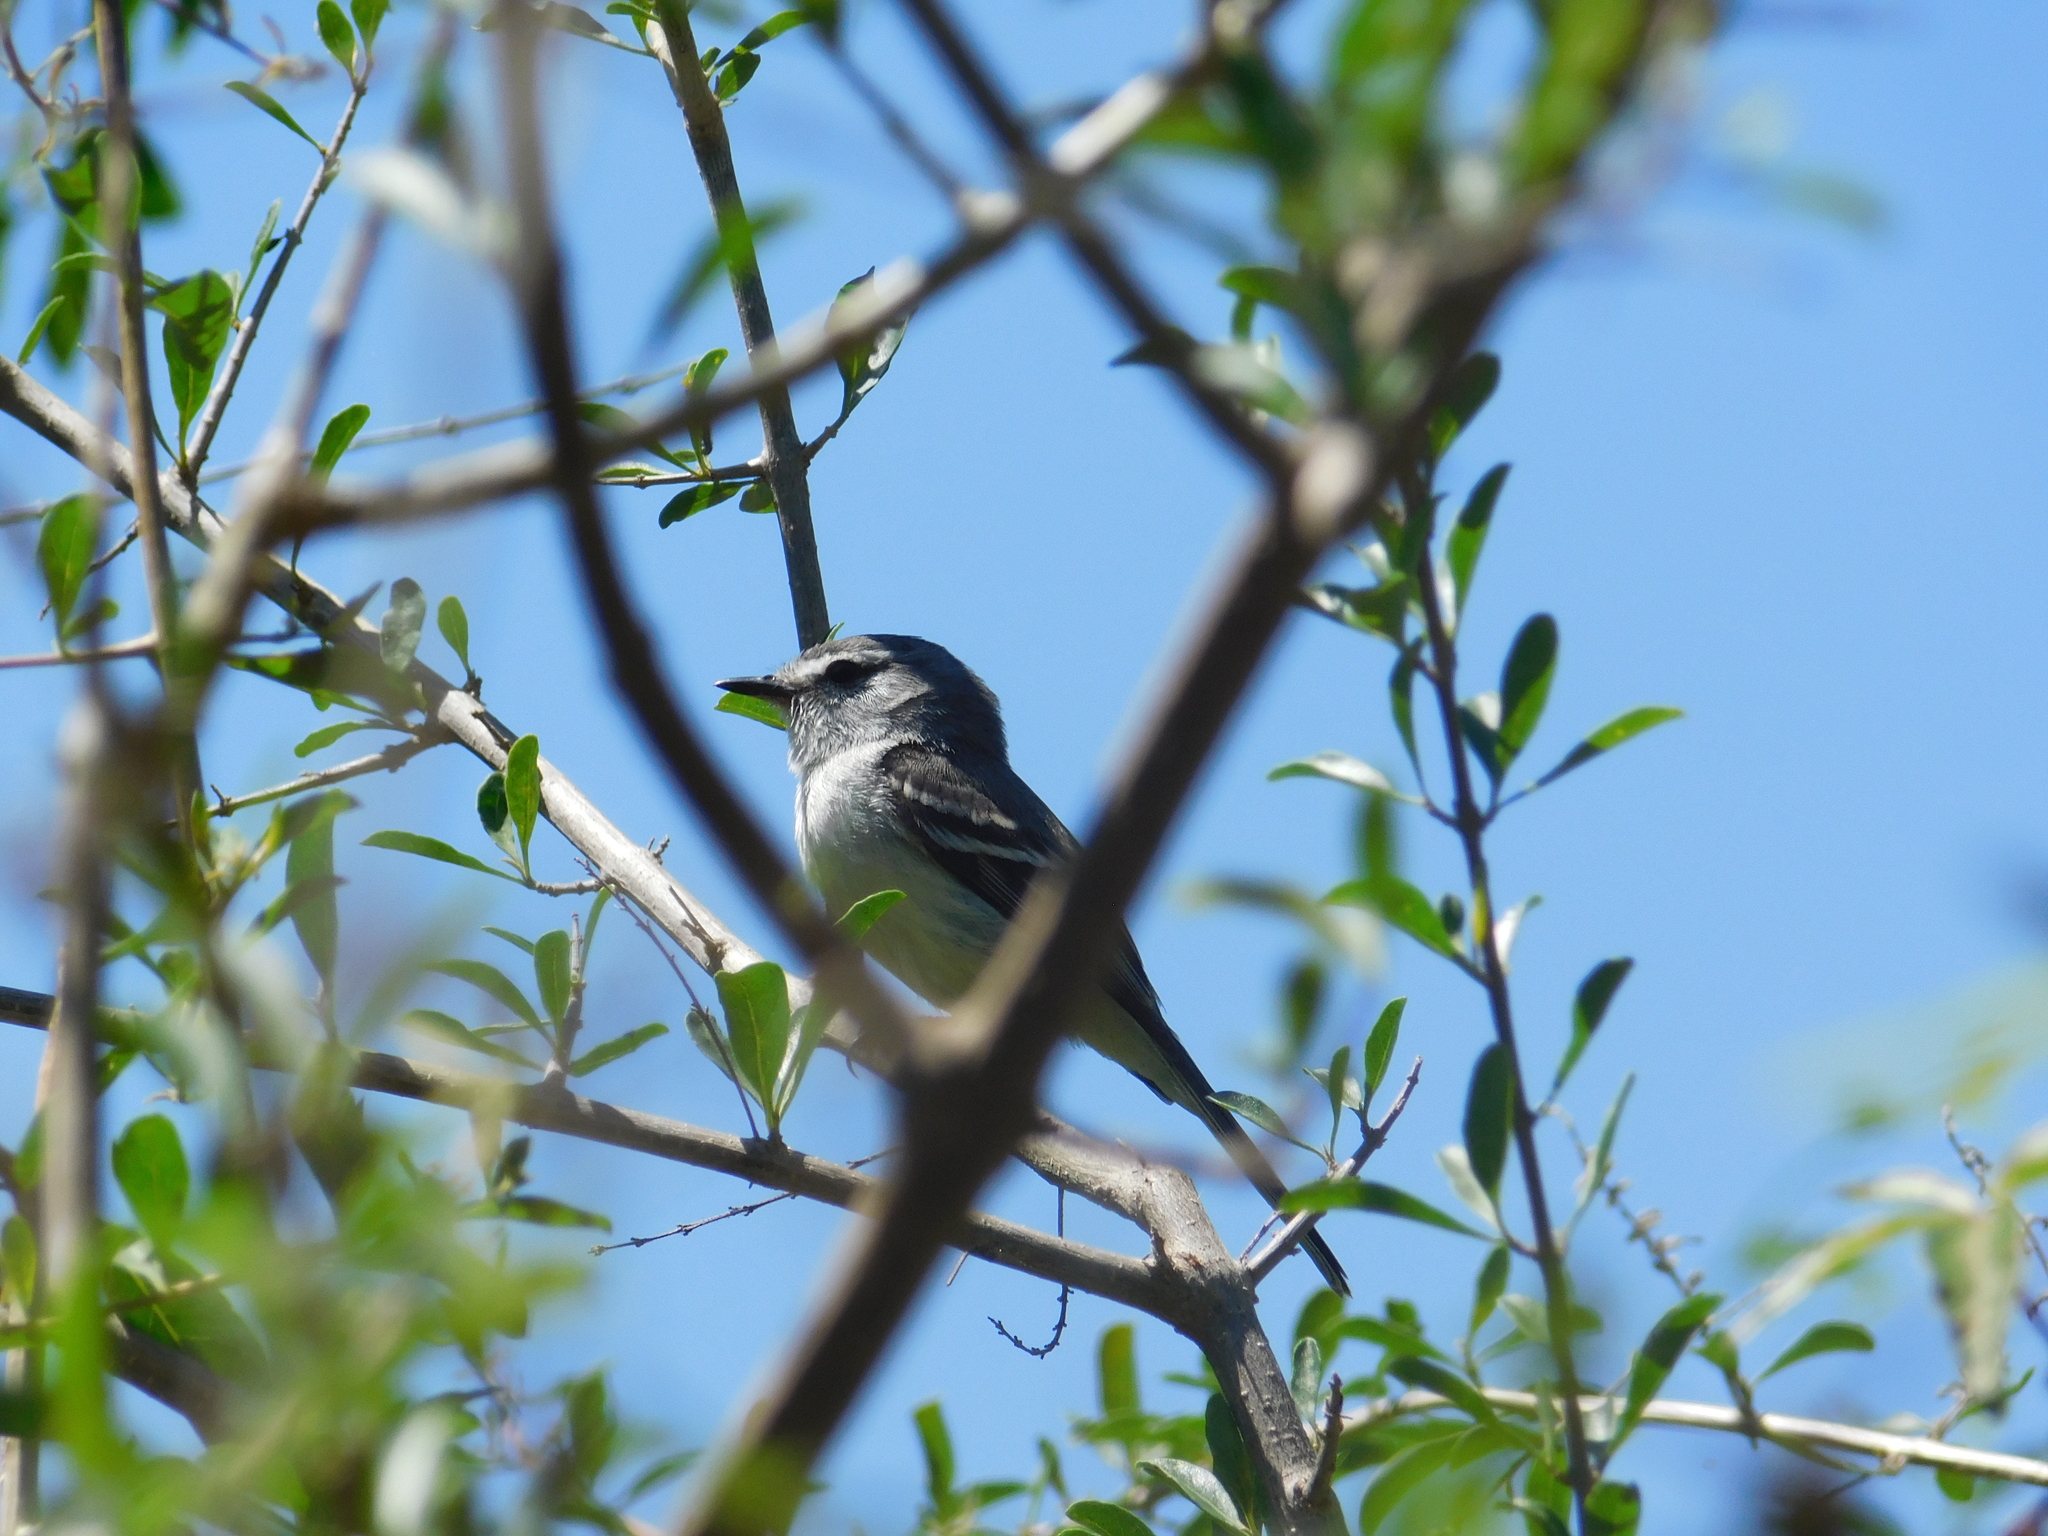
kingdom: Animalia
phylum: Chordata
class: Aves
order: Passeriformes
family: Tyrannidae
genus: Serpophaga
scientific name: Serpophaga subcristata
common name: White-crested tyrannulet
